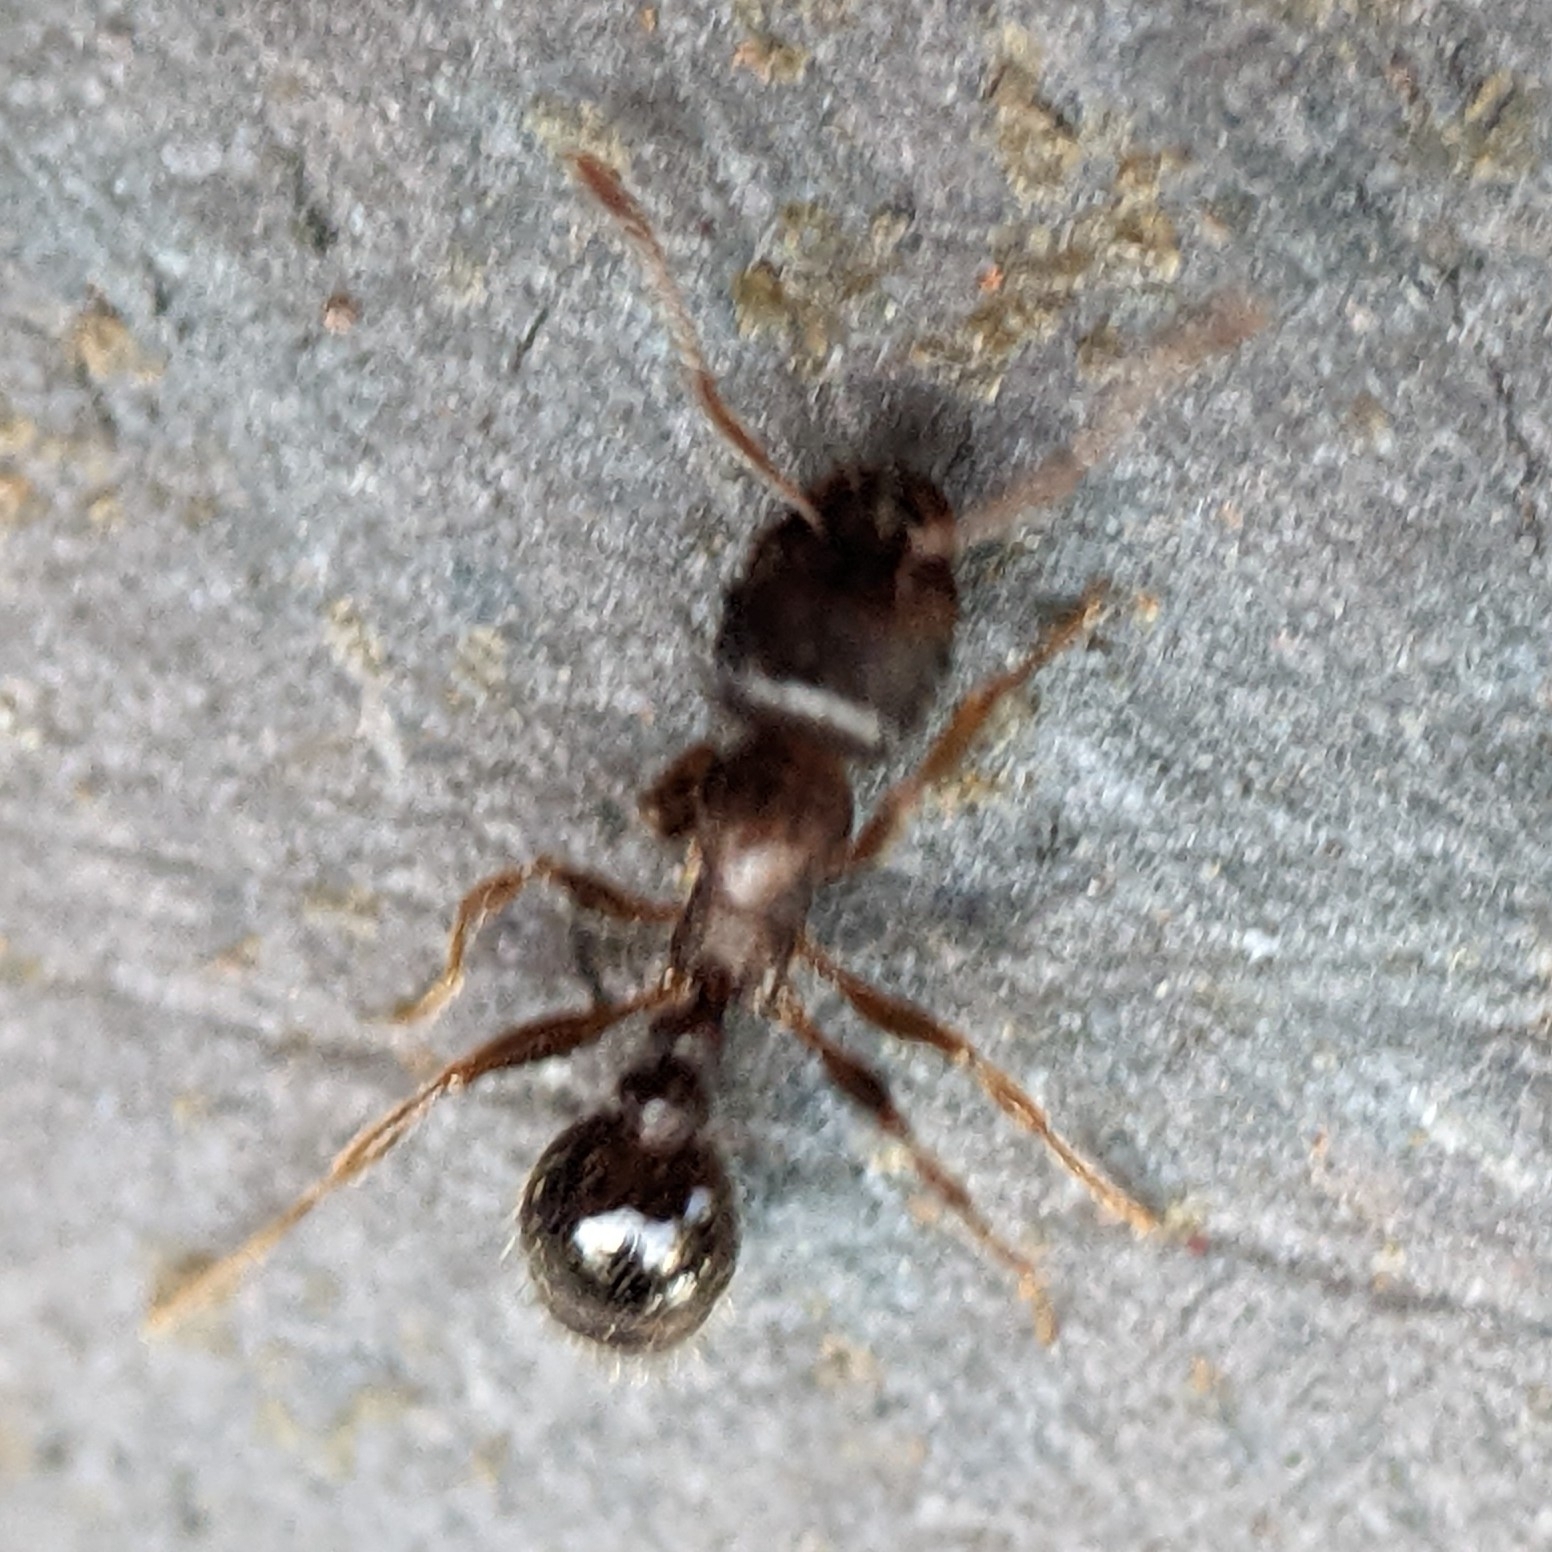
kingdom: Animalia
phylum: Arthropoda
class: Insecta
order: Hymenoptera
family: Formicidae
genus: Tetramorium
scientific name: Tetramorium immigrans
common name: Pavement ant
